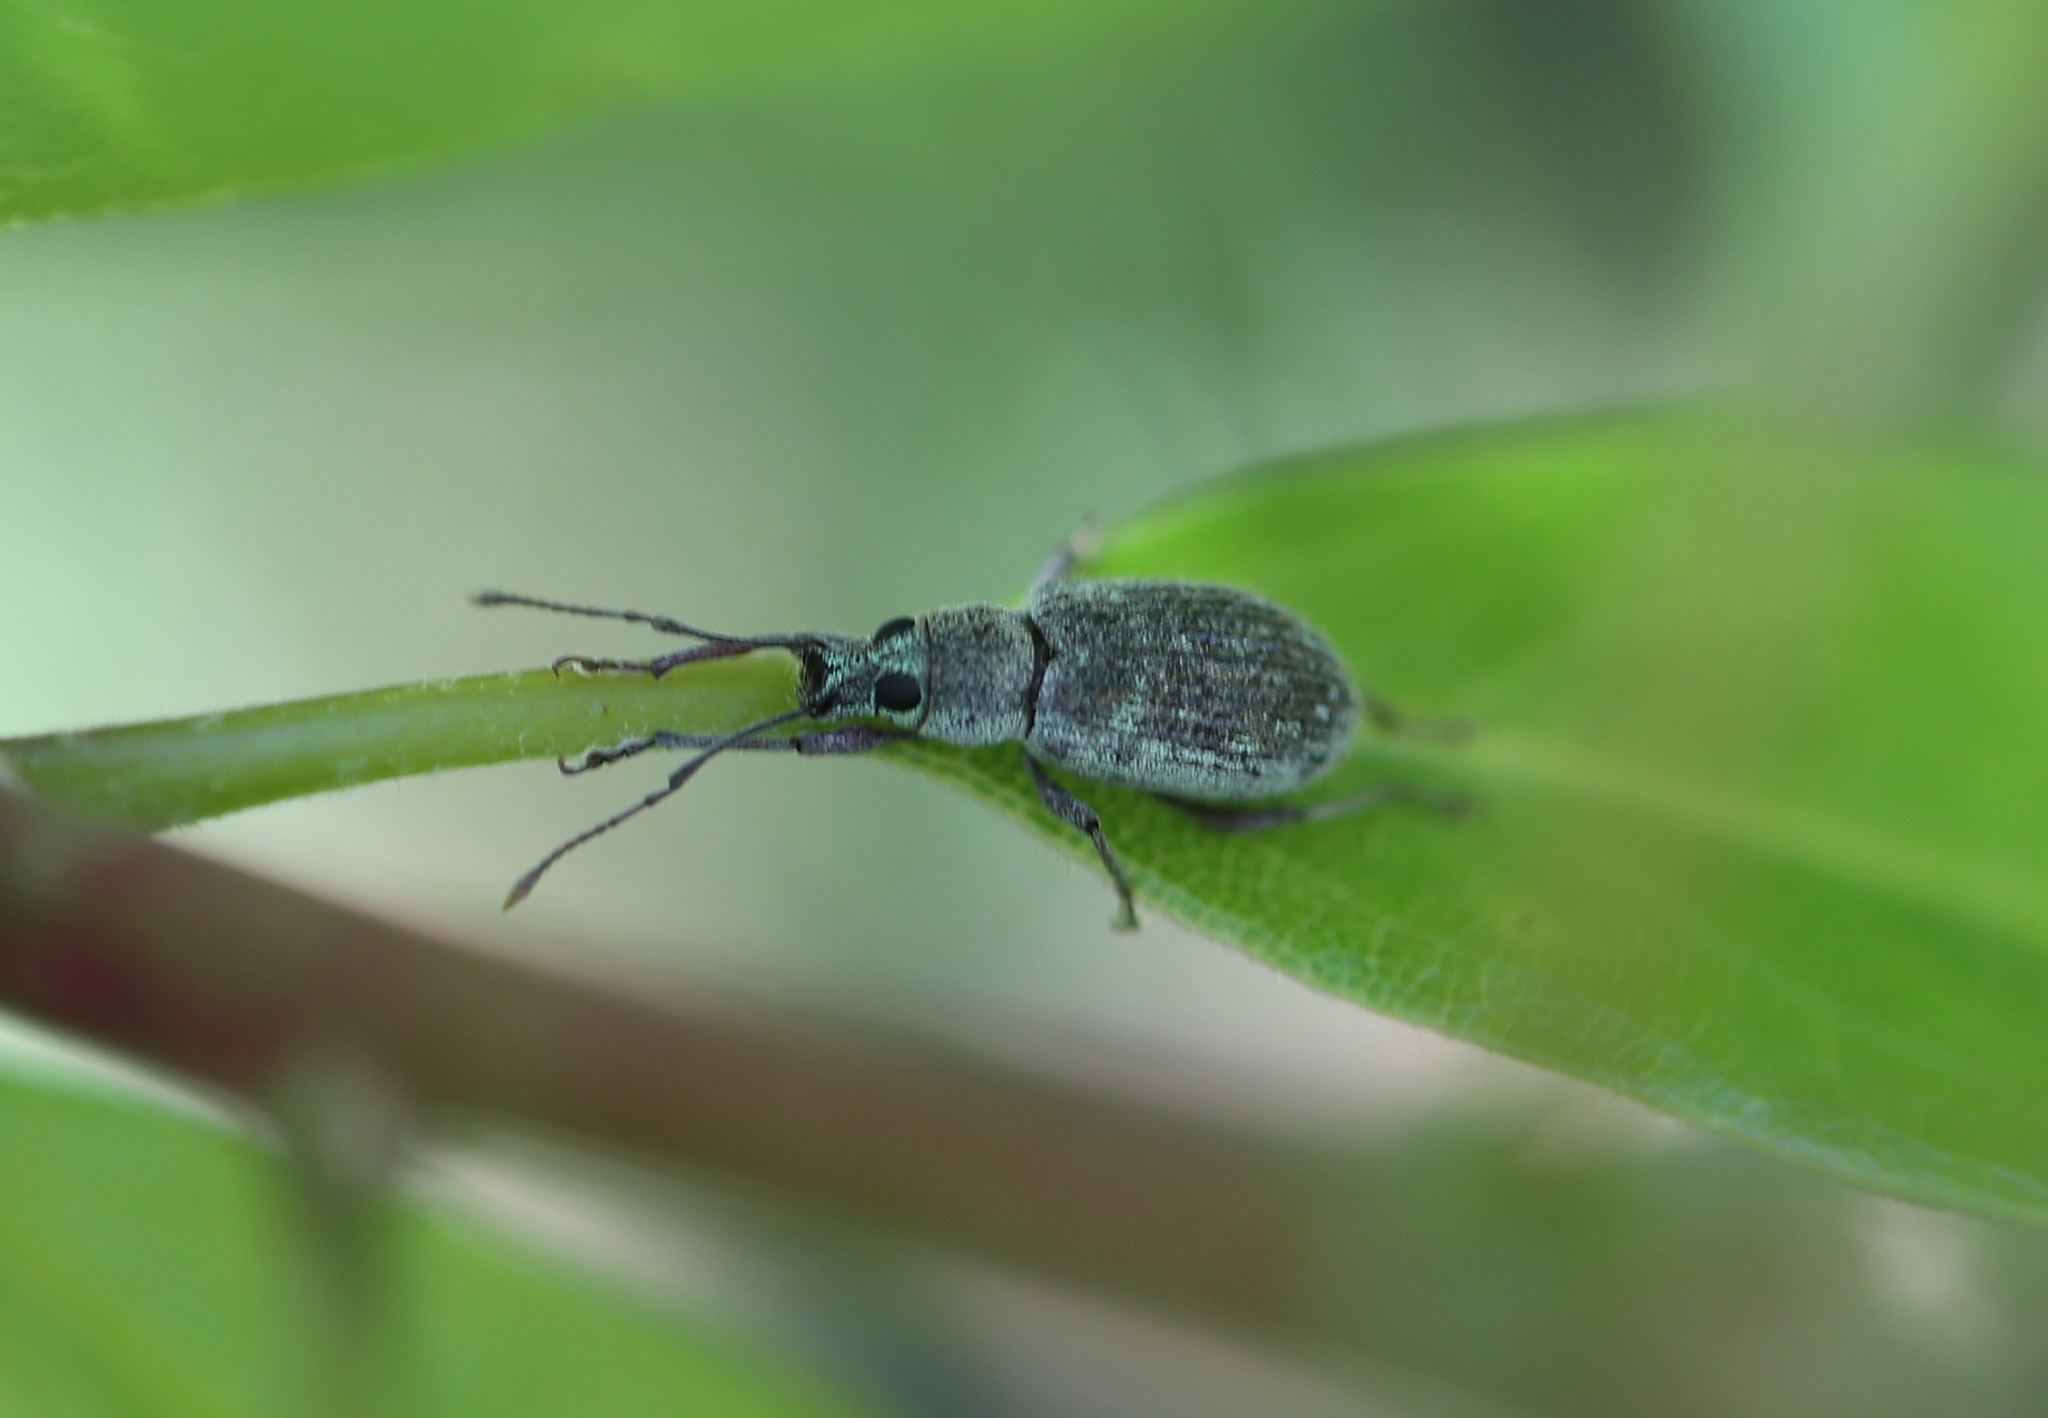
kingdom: Animalia
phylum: Arthropoda
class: Insecta
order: Coleoptera
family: Curculionidae
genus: Cyrtepistomus
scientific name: Cyrtepistomus castaneus
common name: Weevil
